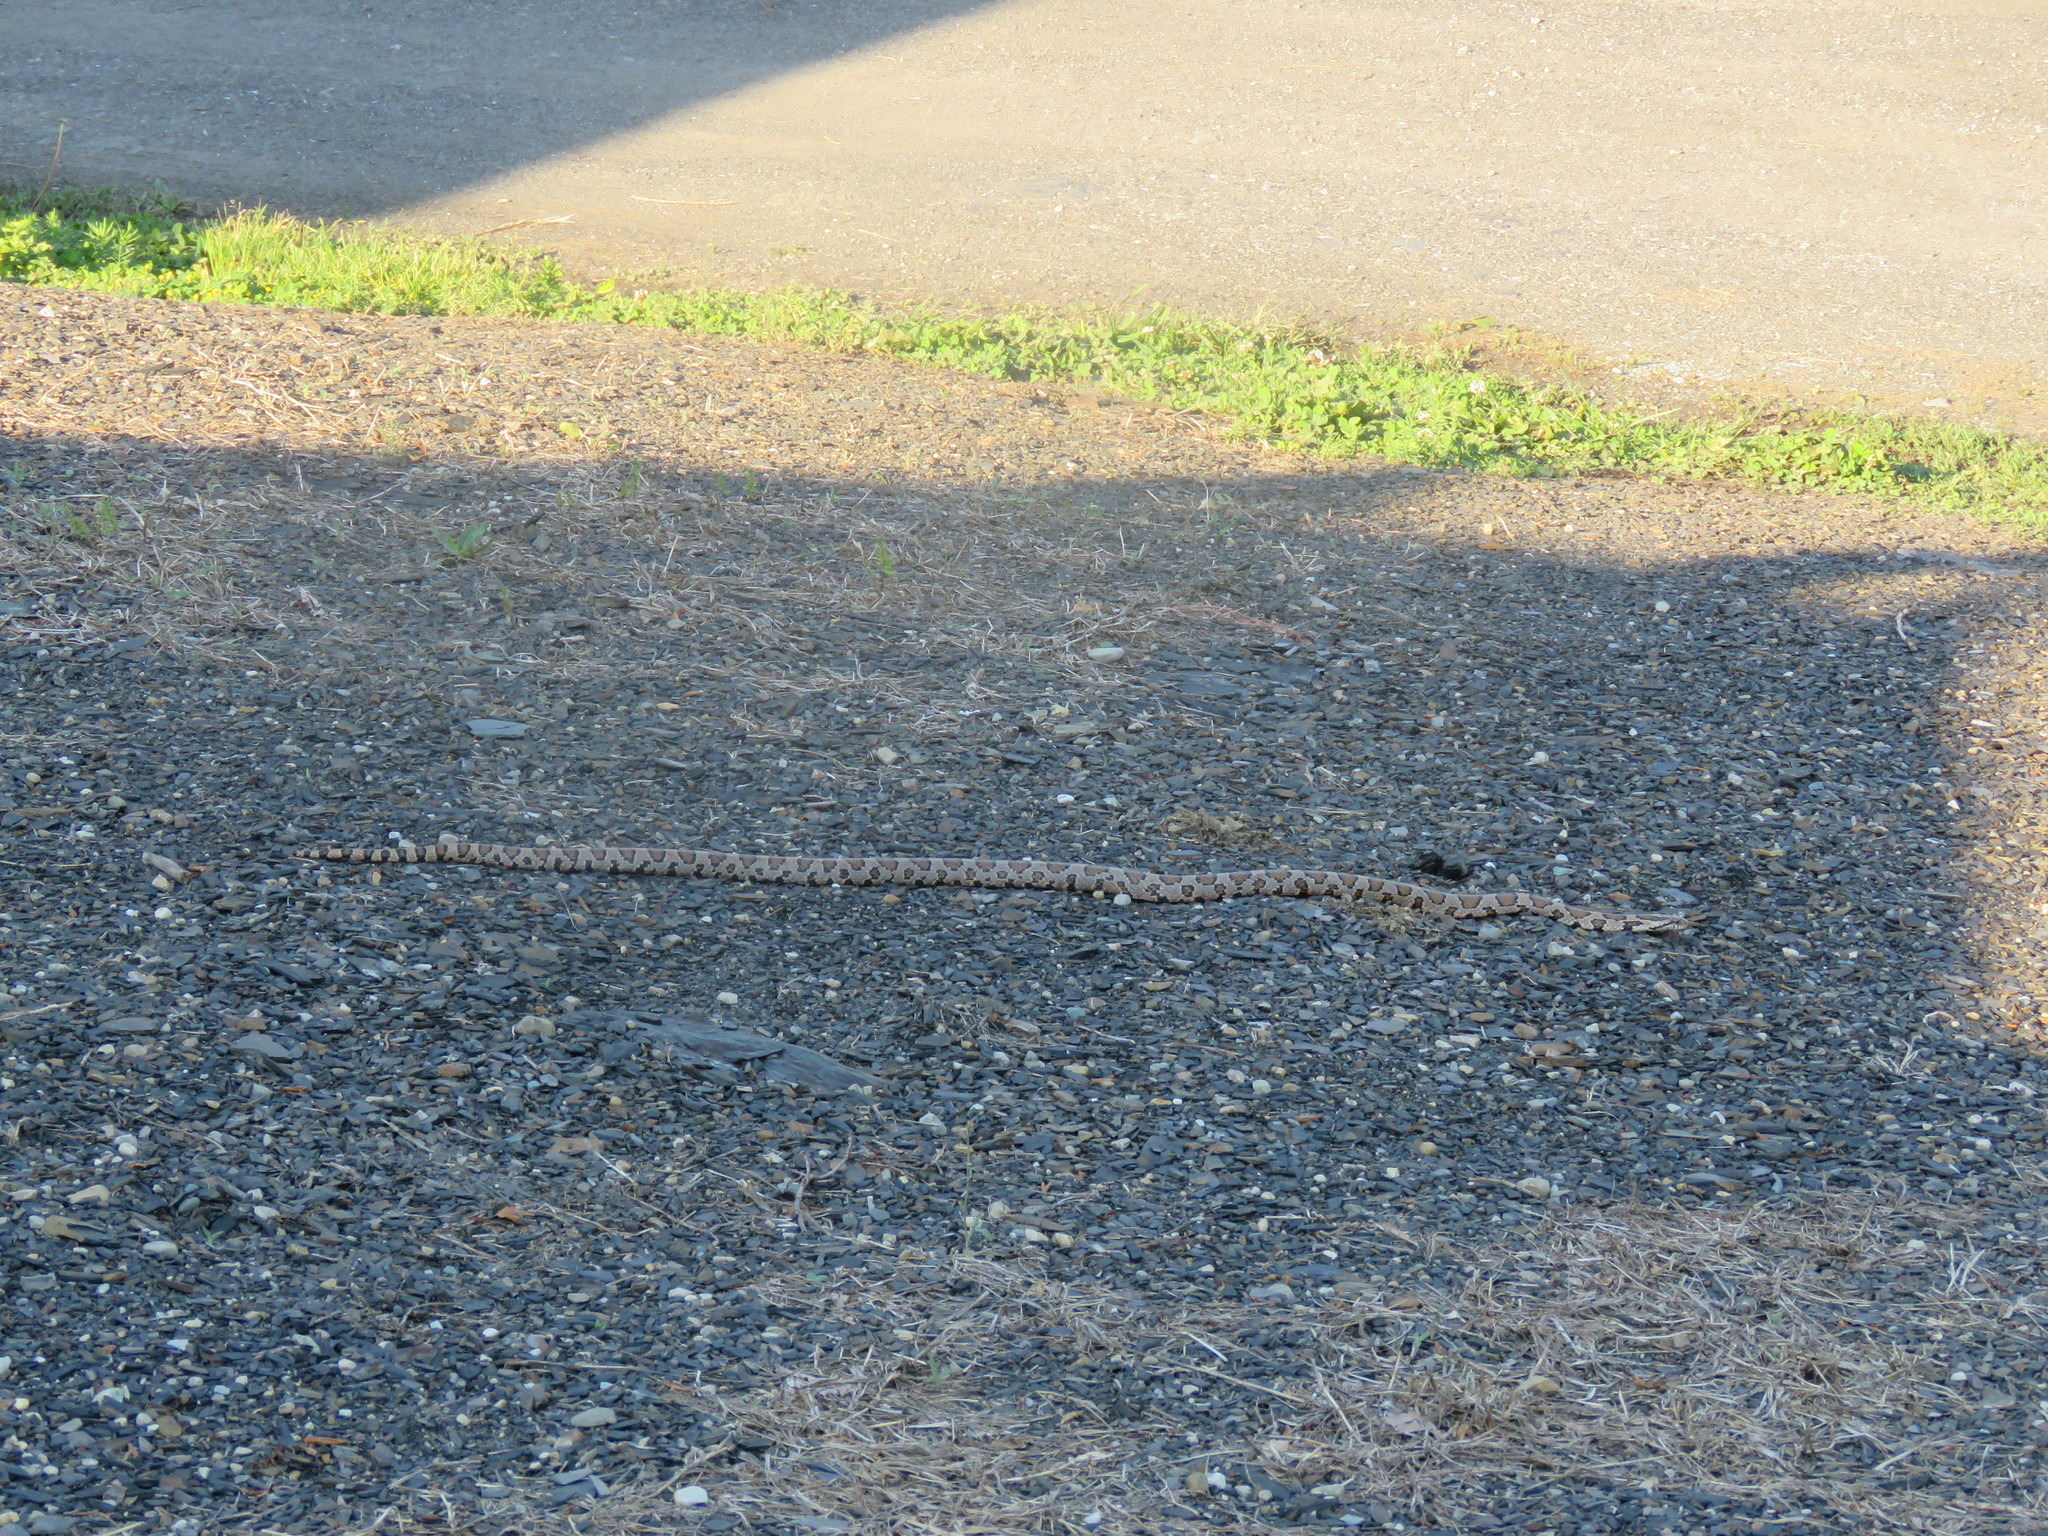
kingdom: Animalia
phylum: Chordata
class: Squamata
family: Colubridae
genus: Lampropeltis
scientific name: Lampropeltis triangulum
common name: Eastern milksnake
